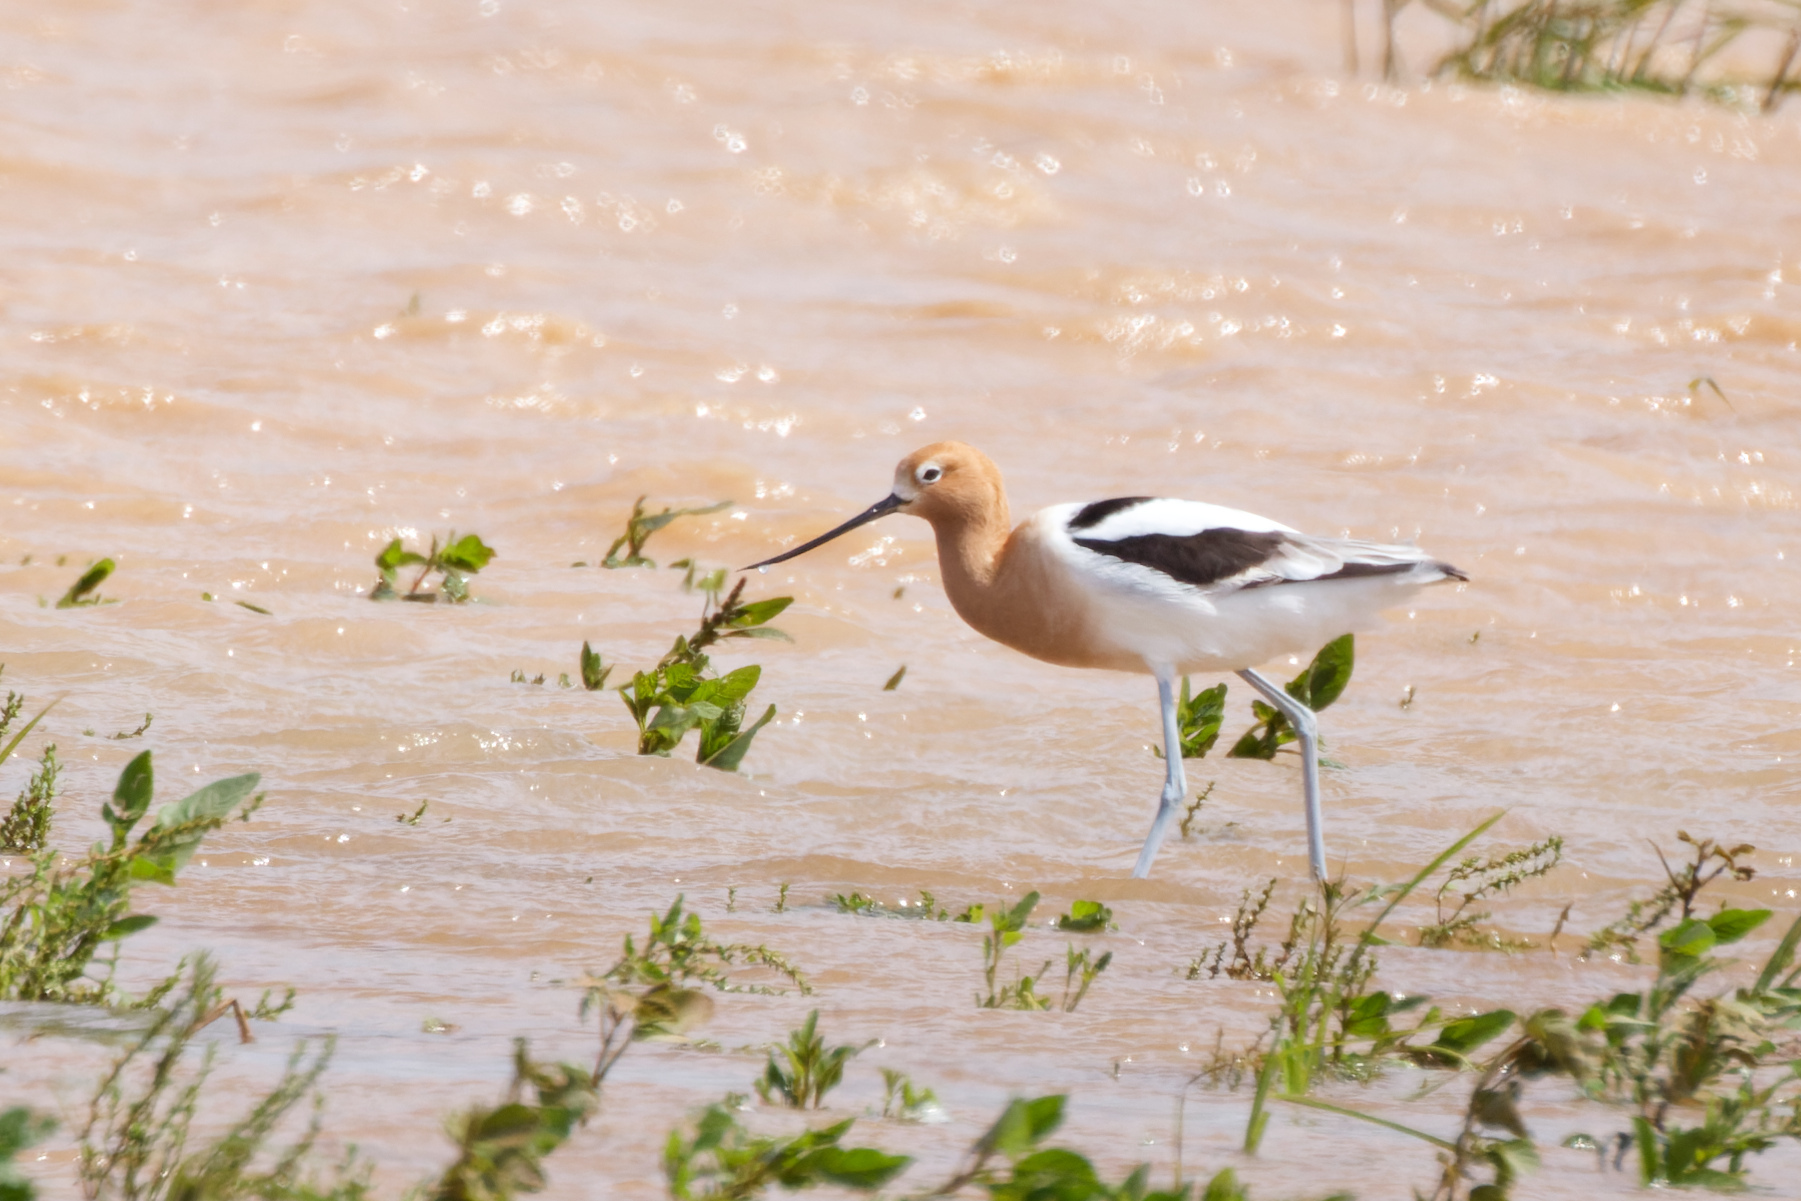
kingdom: Animalia
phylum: Chordata
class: Aves
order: Charadriiformes
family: Recurvirostridae
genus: Recurvirostra
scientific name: Recurvirostra americana
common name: American avocet
